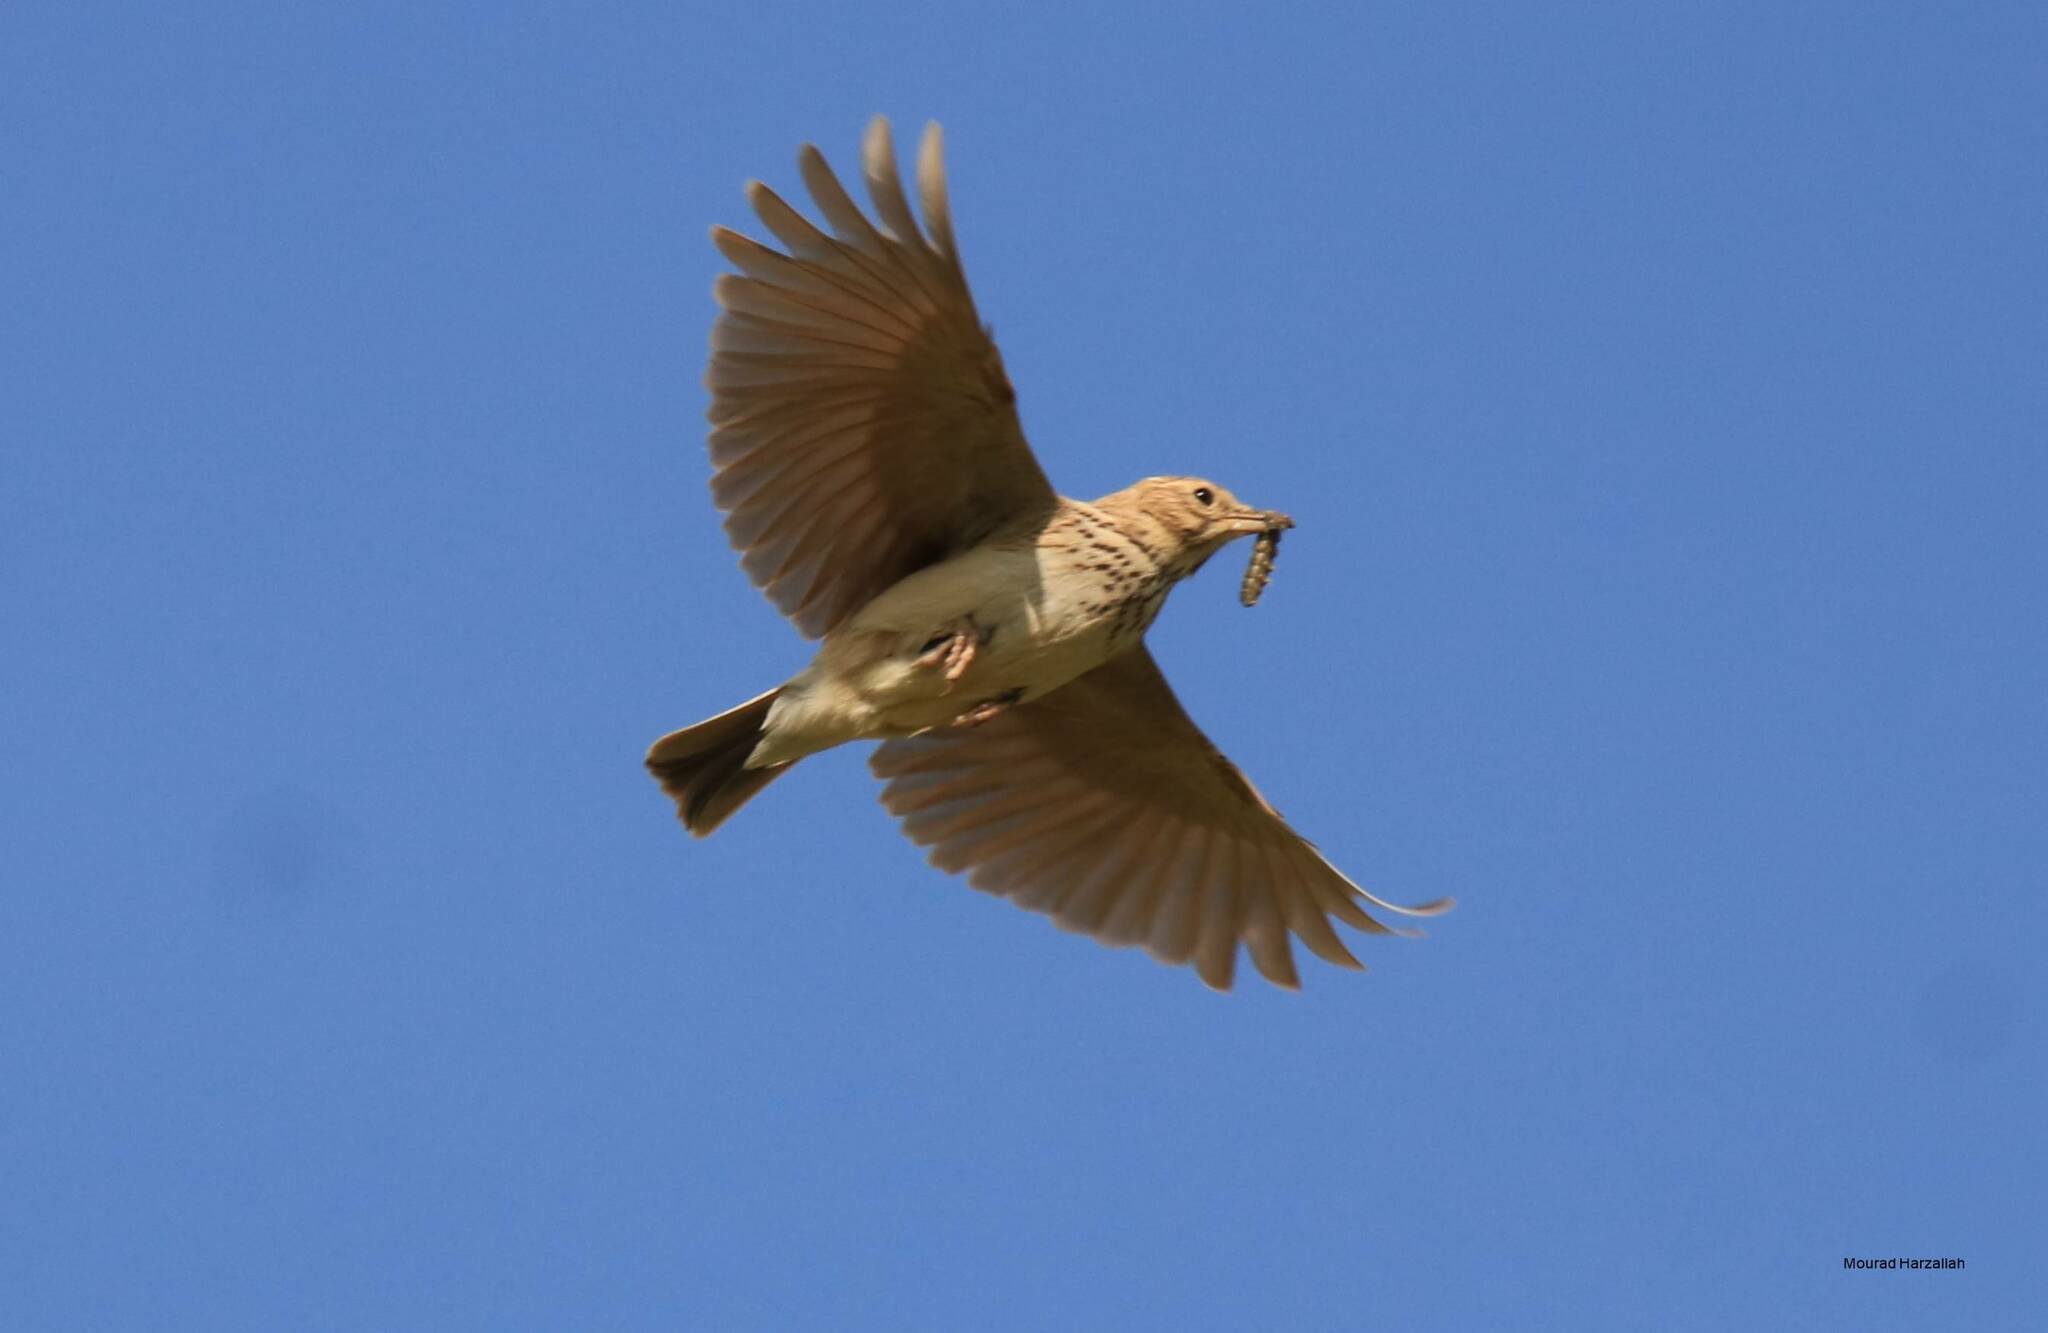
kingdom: Animalia
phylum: Chordata
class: Aves
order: Passeriformes
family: Alaudidae
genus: Galerida
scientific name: Galerida cristata
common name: Crested lark
